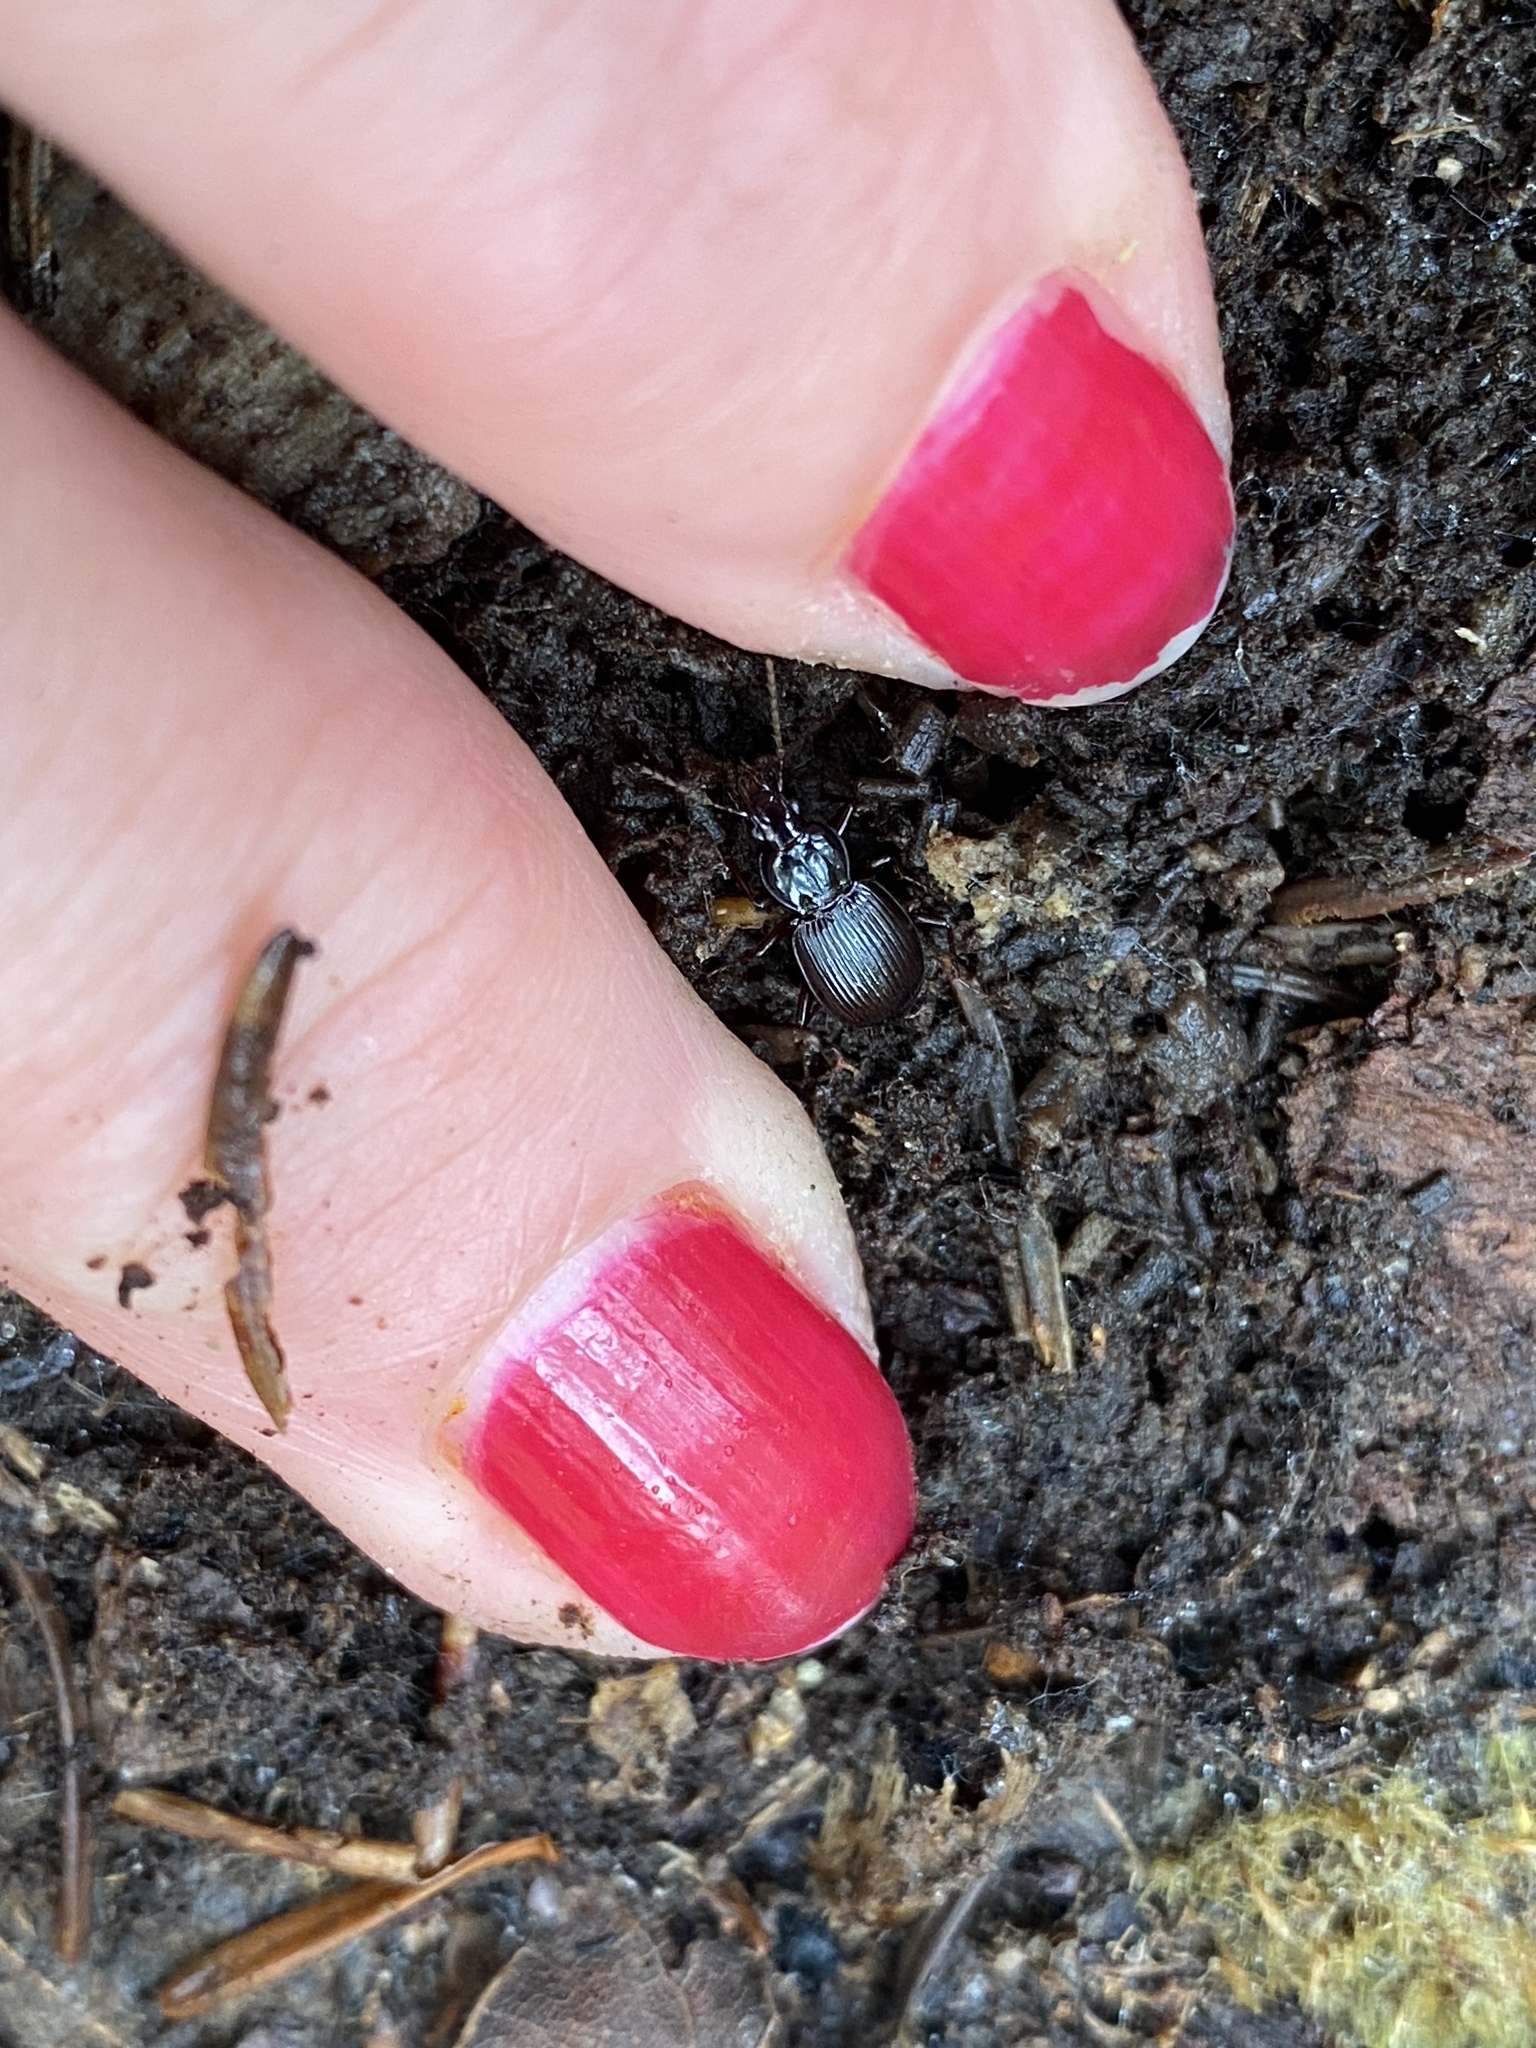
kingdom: Animalia
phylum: Arthropoda
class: Insecta
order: Coleoptera
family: Carabidae
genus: Gastrellarius
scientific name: Gastrellarius honestus
